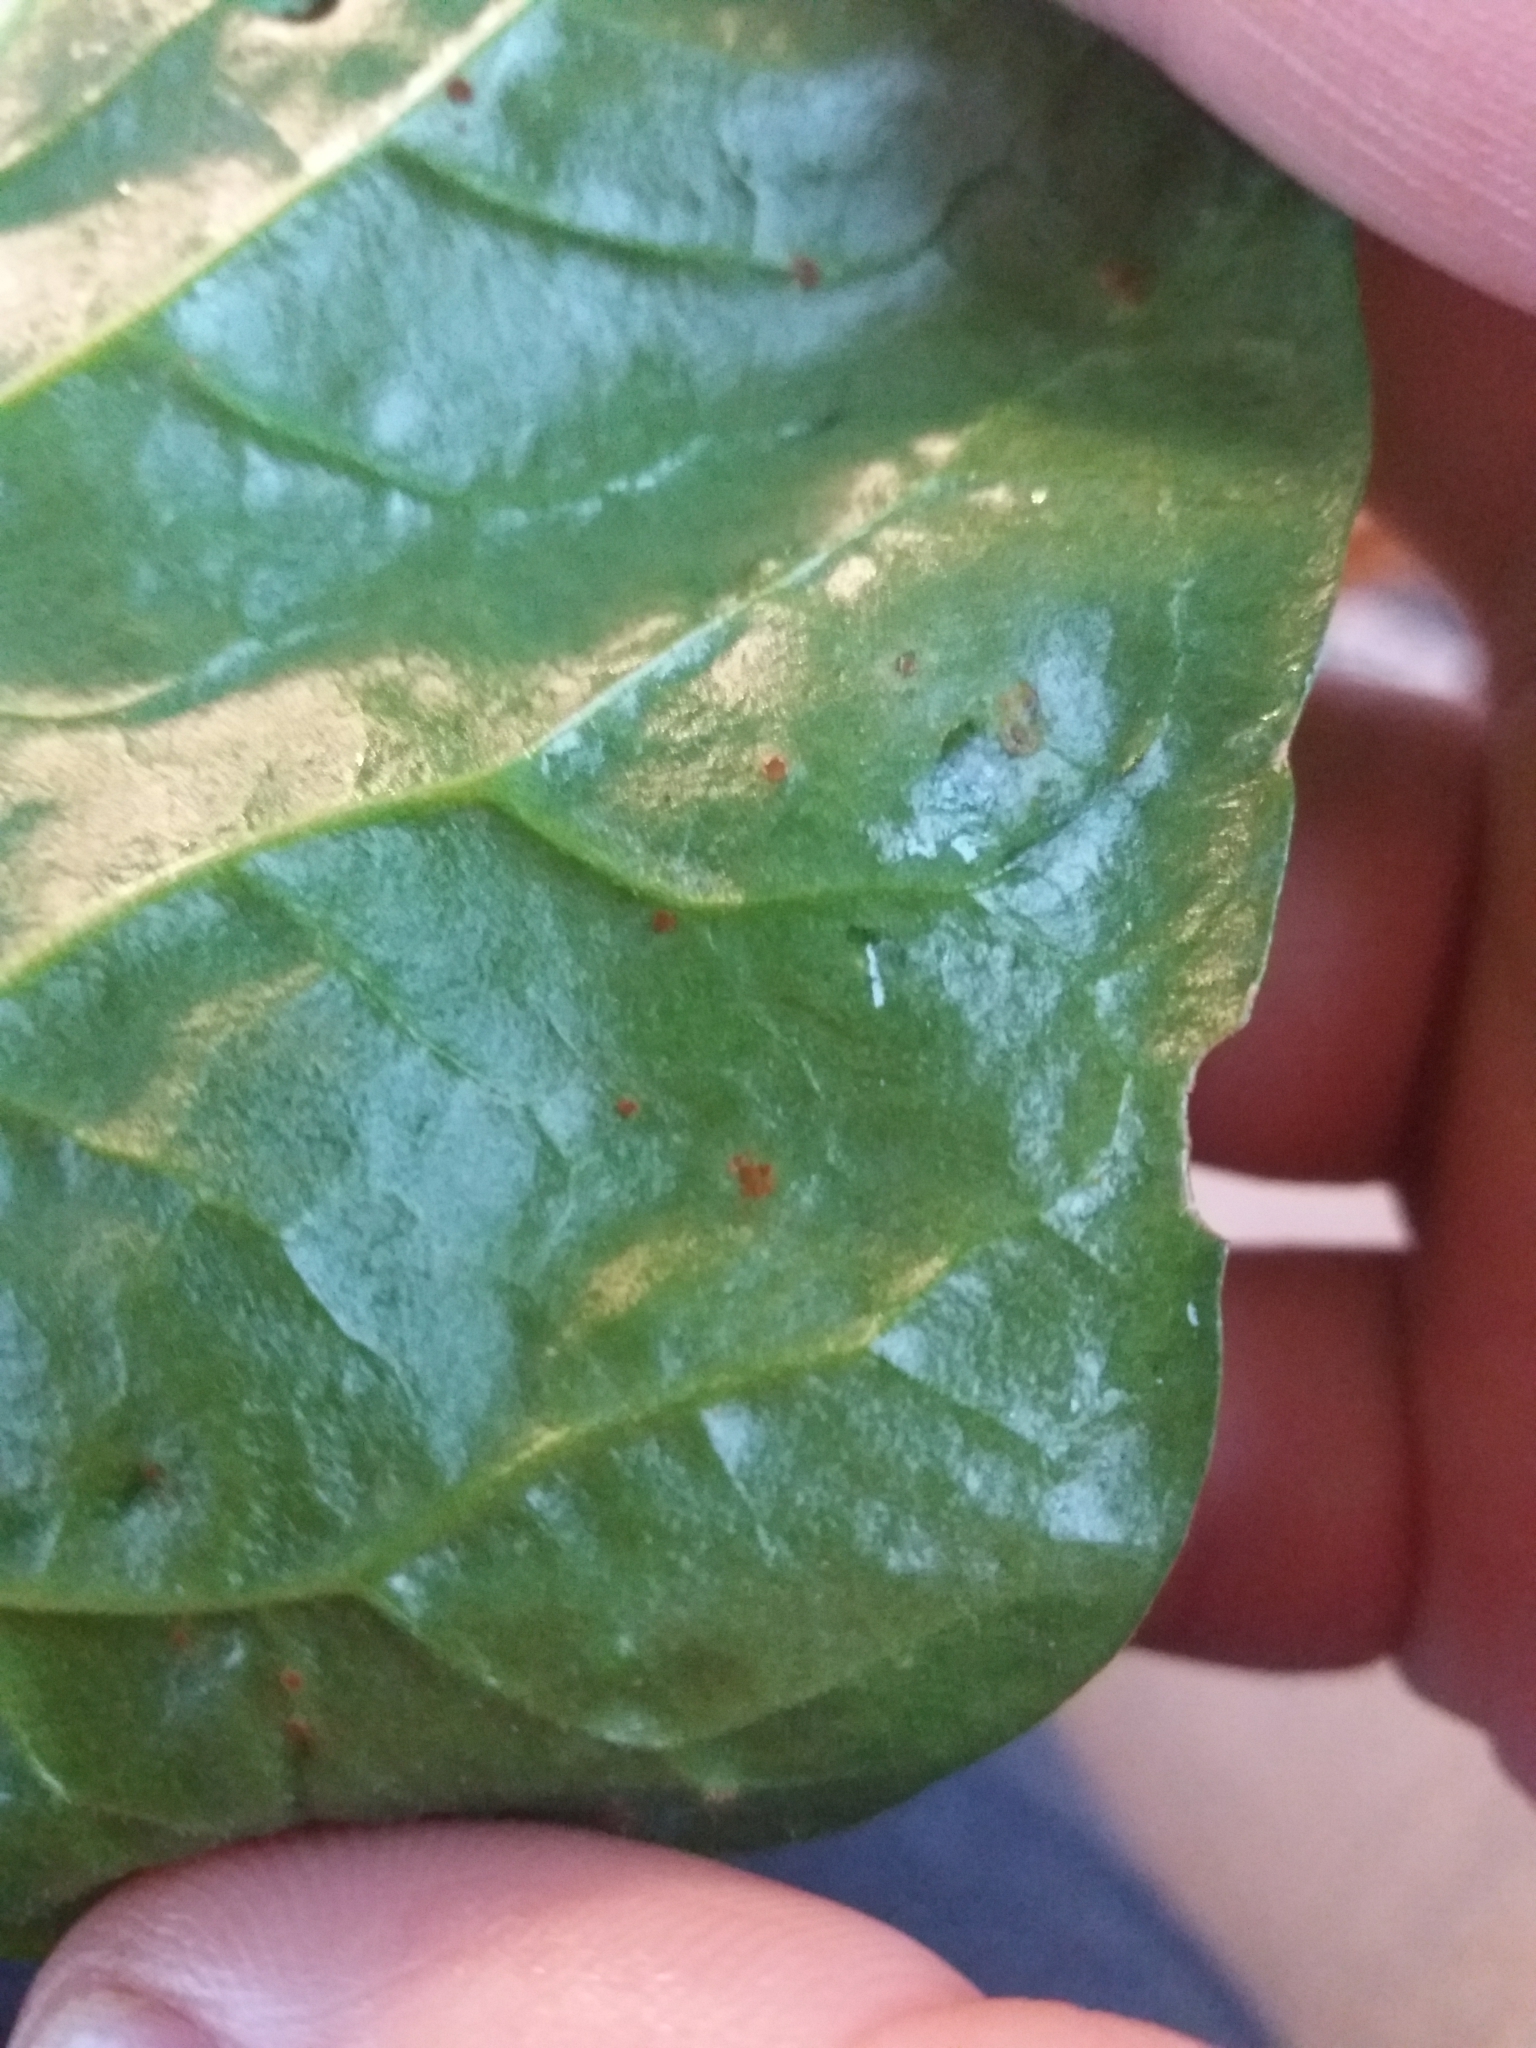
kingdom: Fungi
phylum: Basidiomycota
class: Pucciniomycetes
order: Pucciniales
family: Pucciniaceae
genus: Uromyces
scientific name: Uromyces betae
